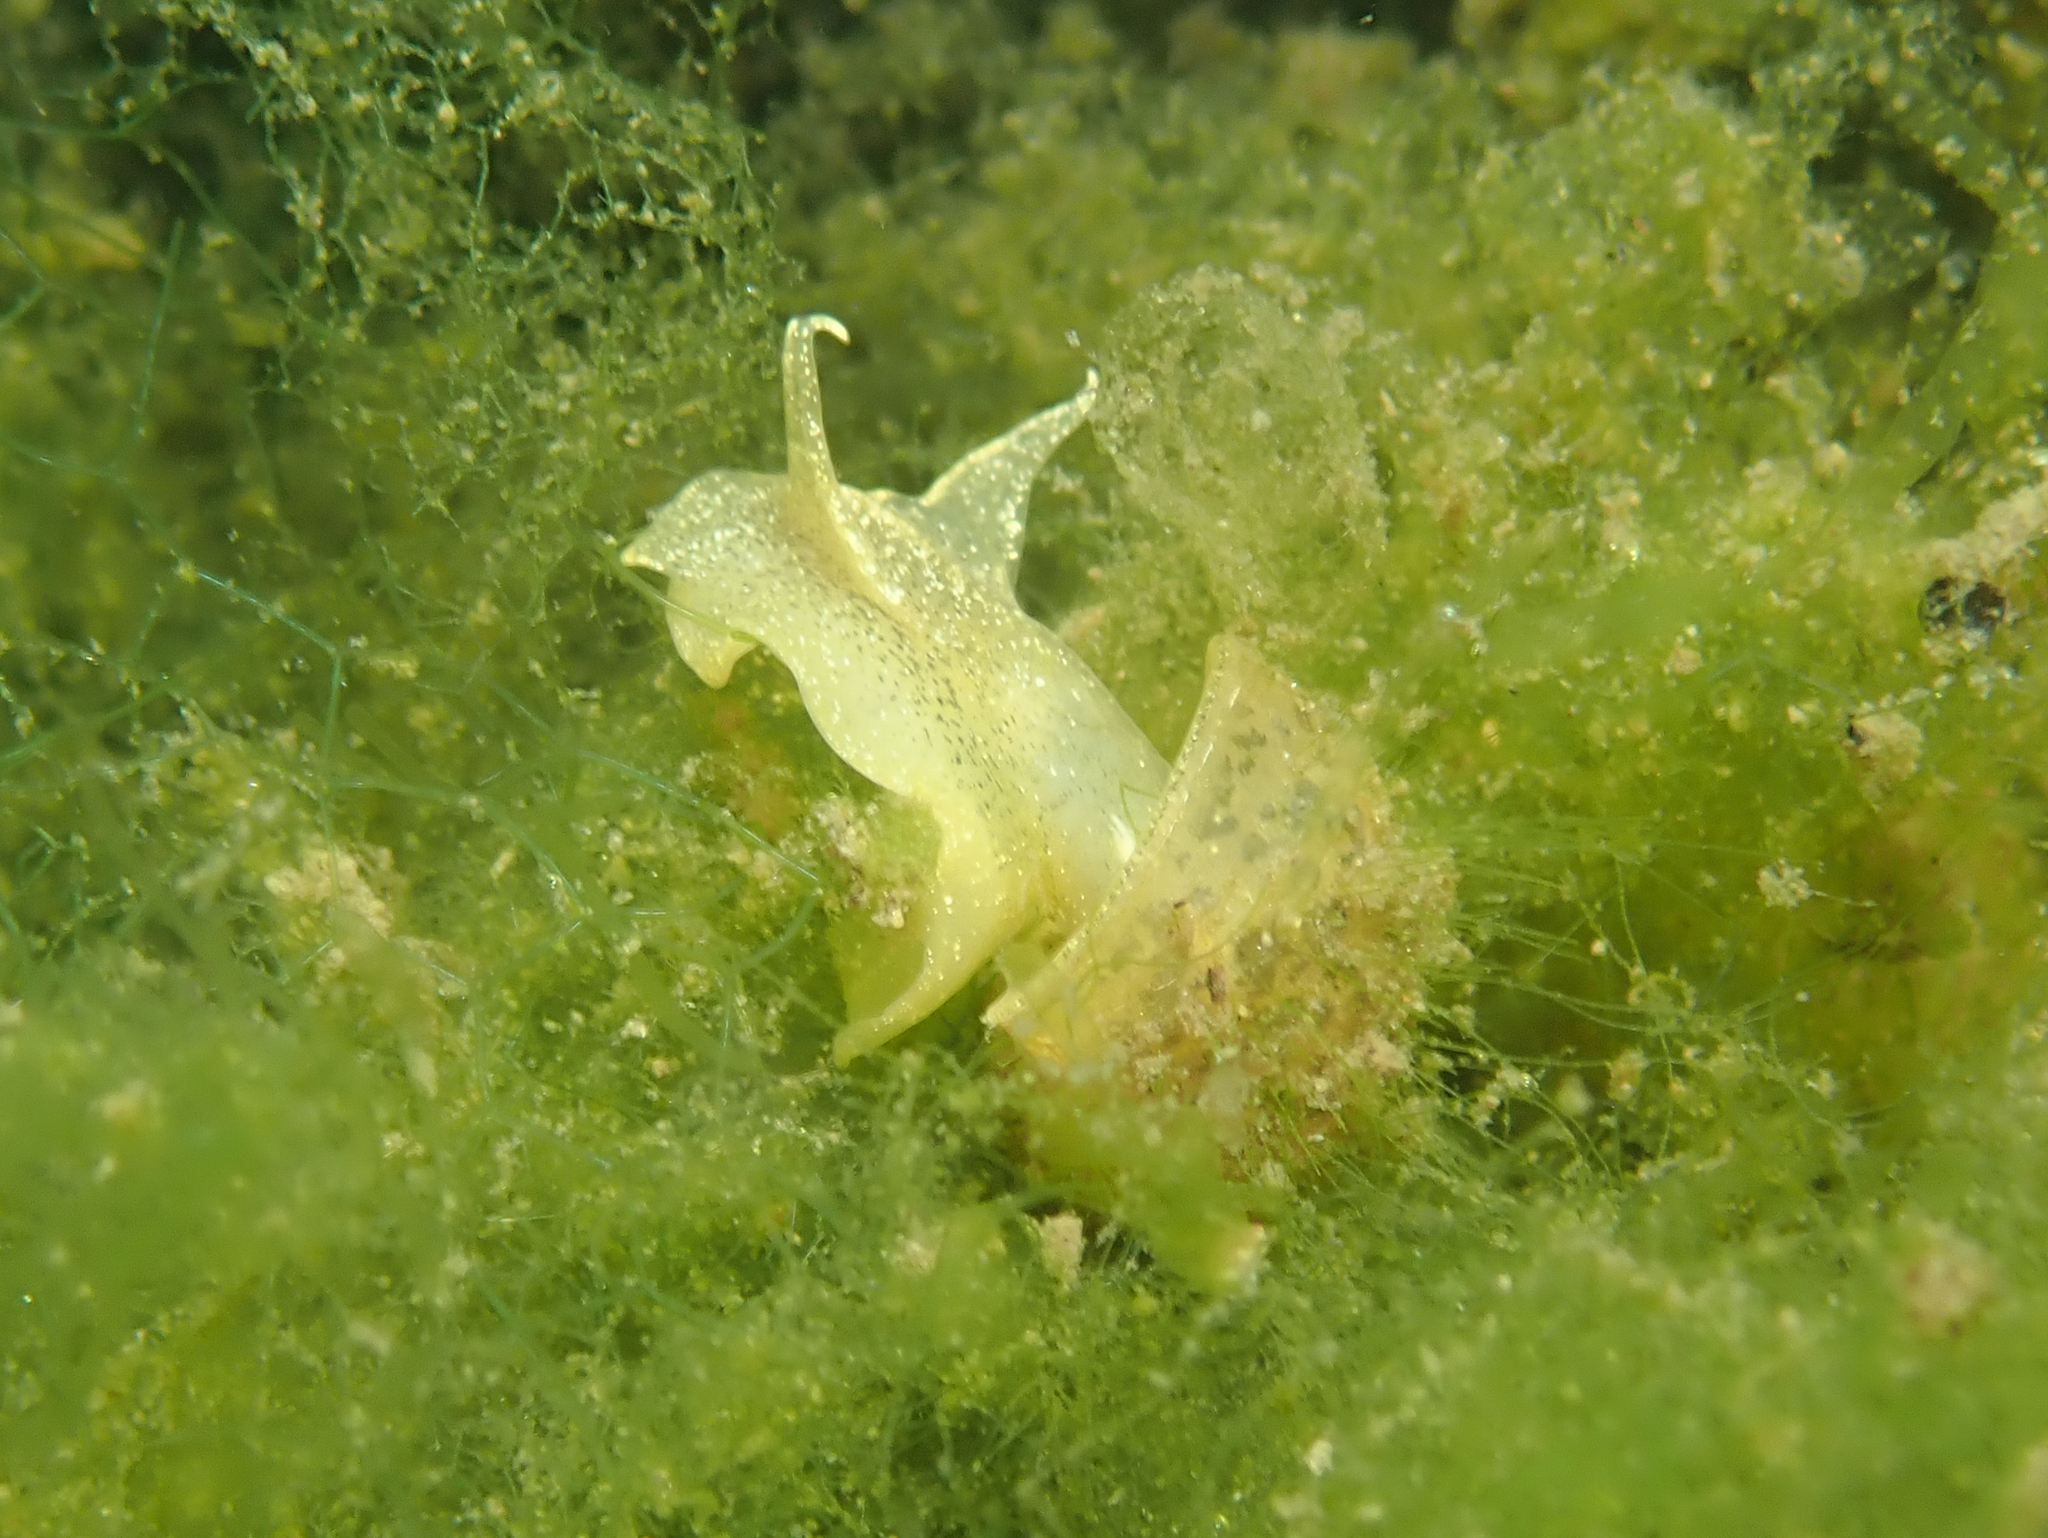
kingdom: Animalia
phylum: Mollusca
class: Gastropoda
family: Lymnaeidae
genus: Radix
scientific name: Radix auricularia
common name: Ear pond snail
